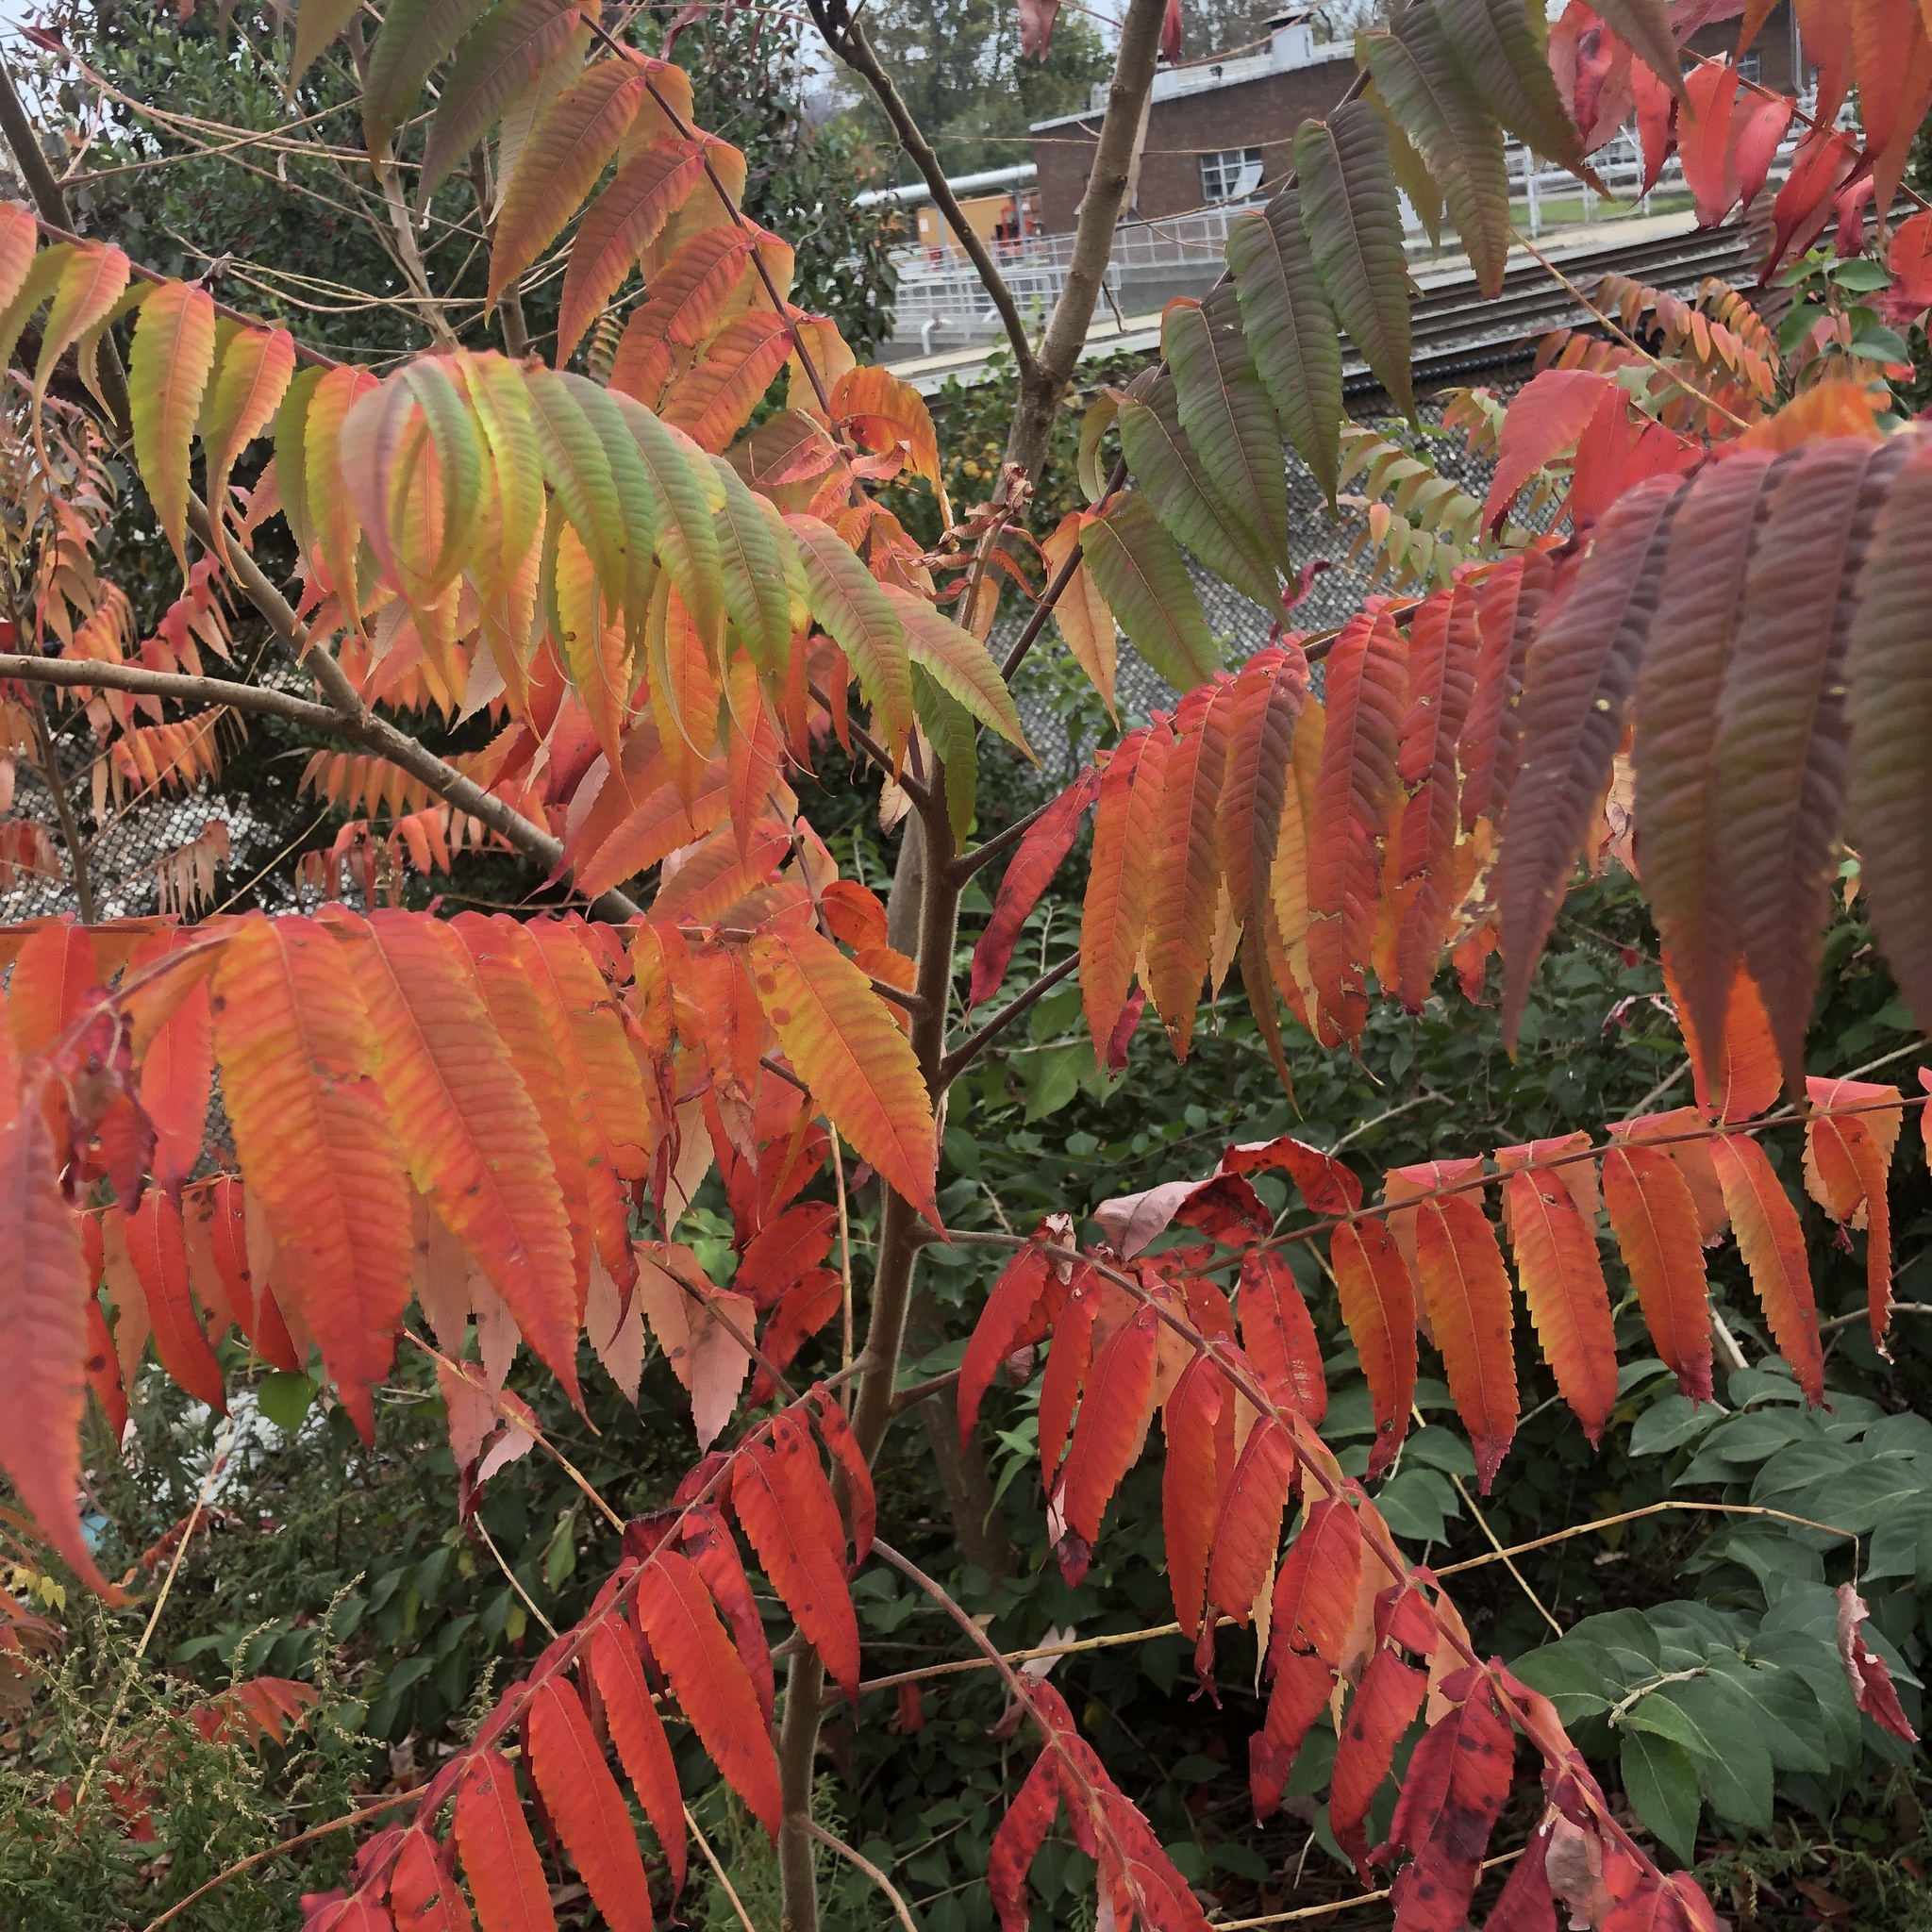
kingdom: Plantae
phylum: Tracheophyta
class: Magnoliopsida
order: Sapindales
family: Anacardiaceae
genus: Rhus
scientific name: Rhus typhina
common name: Staghorn sumac
